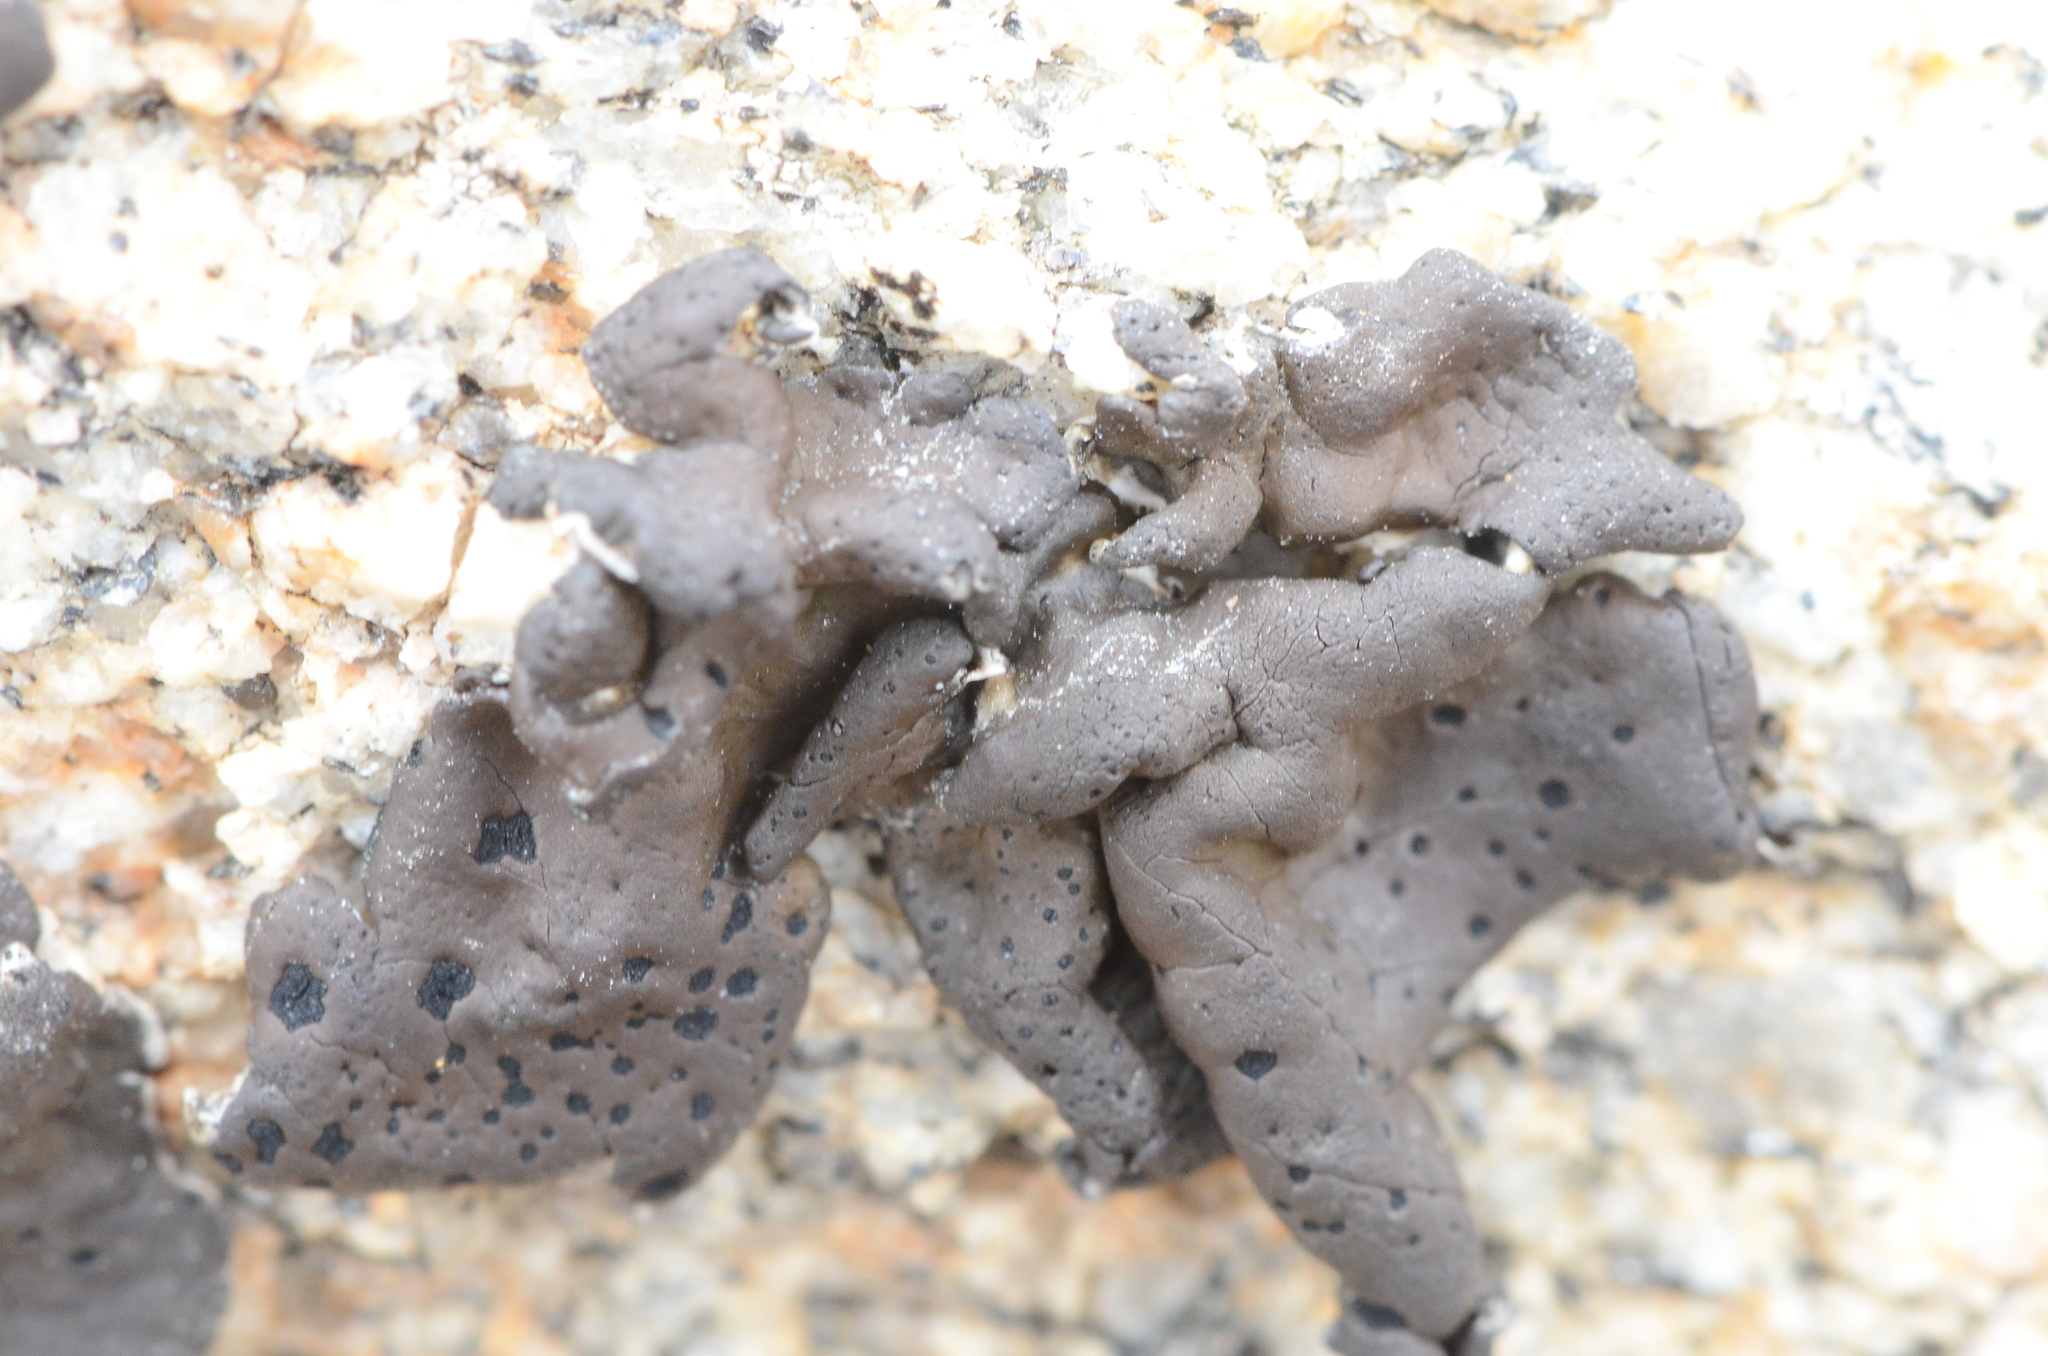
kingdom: Fungi
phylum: Ascomycota
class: Lecanoromycetes
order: Umbilicariales
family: Umbilicariaceae
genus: Umbilicaria
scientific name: Umbilicaria phaea
